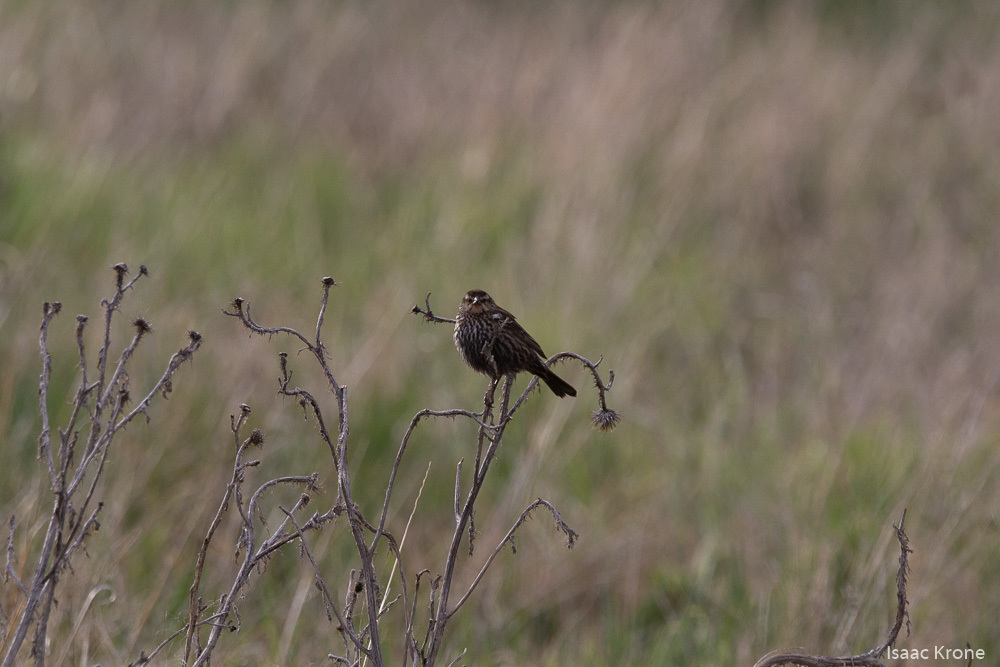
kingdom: Animalia
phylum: Chordata
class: Aves
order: Passeriformes
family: Icteridae
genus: Agelaius
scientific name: Agelaius phoeniceus
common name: Red-winged blackbird
